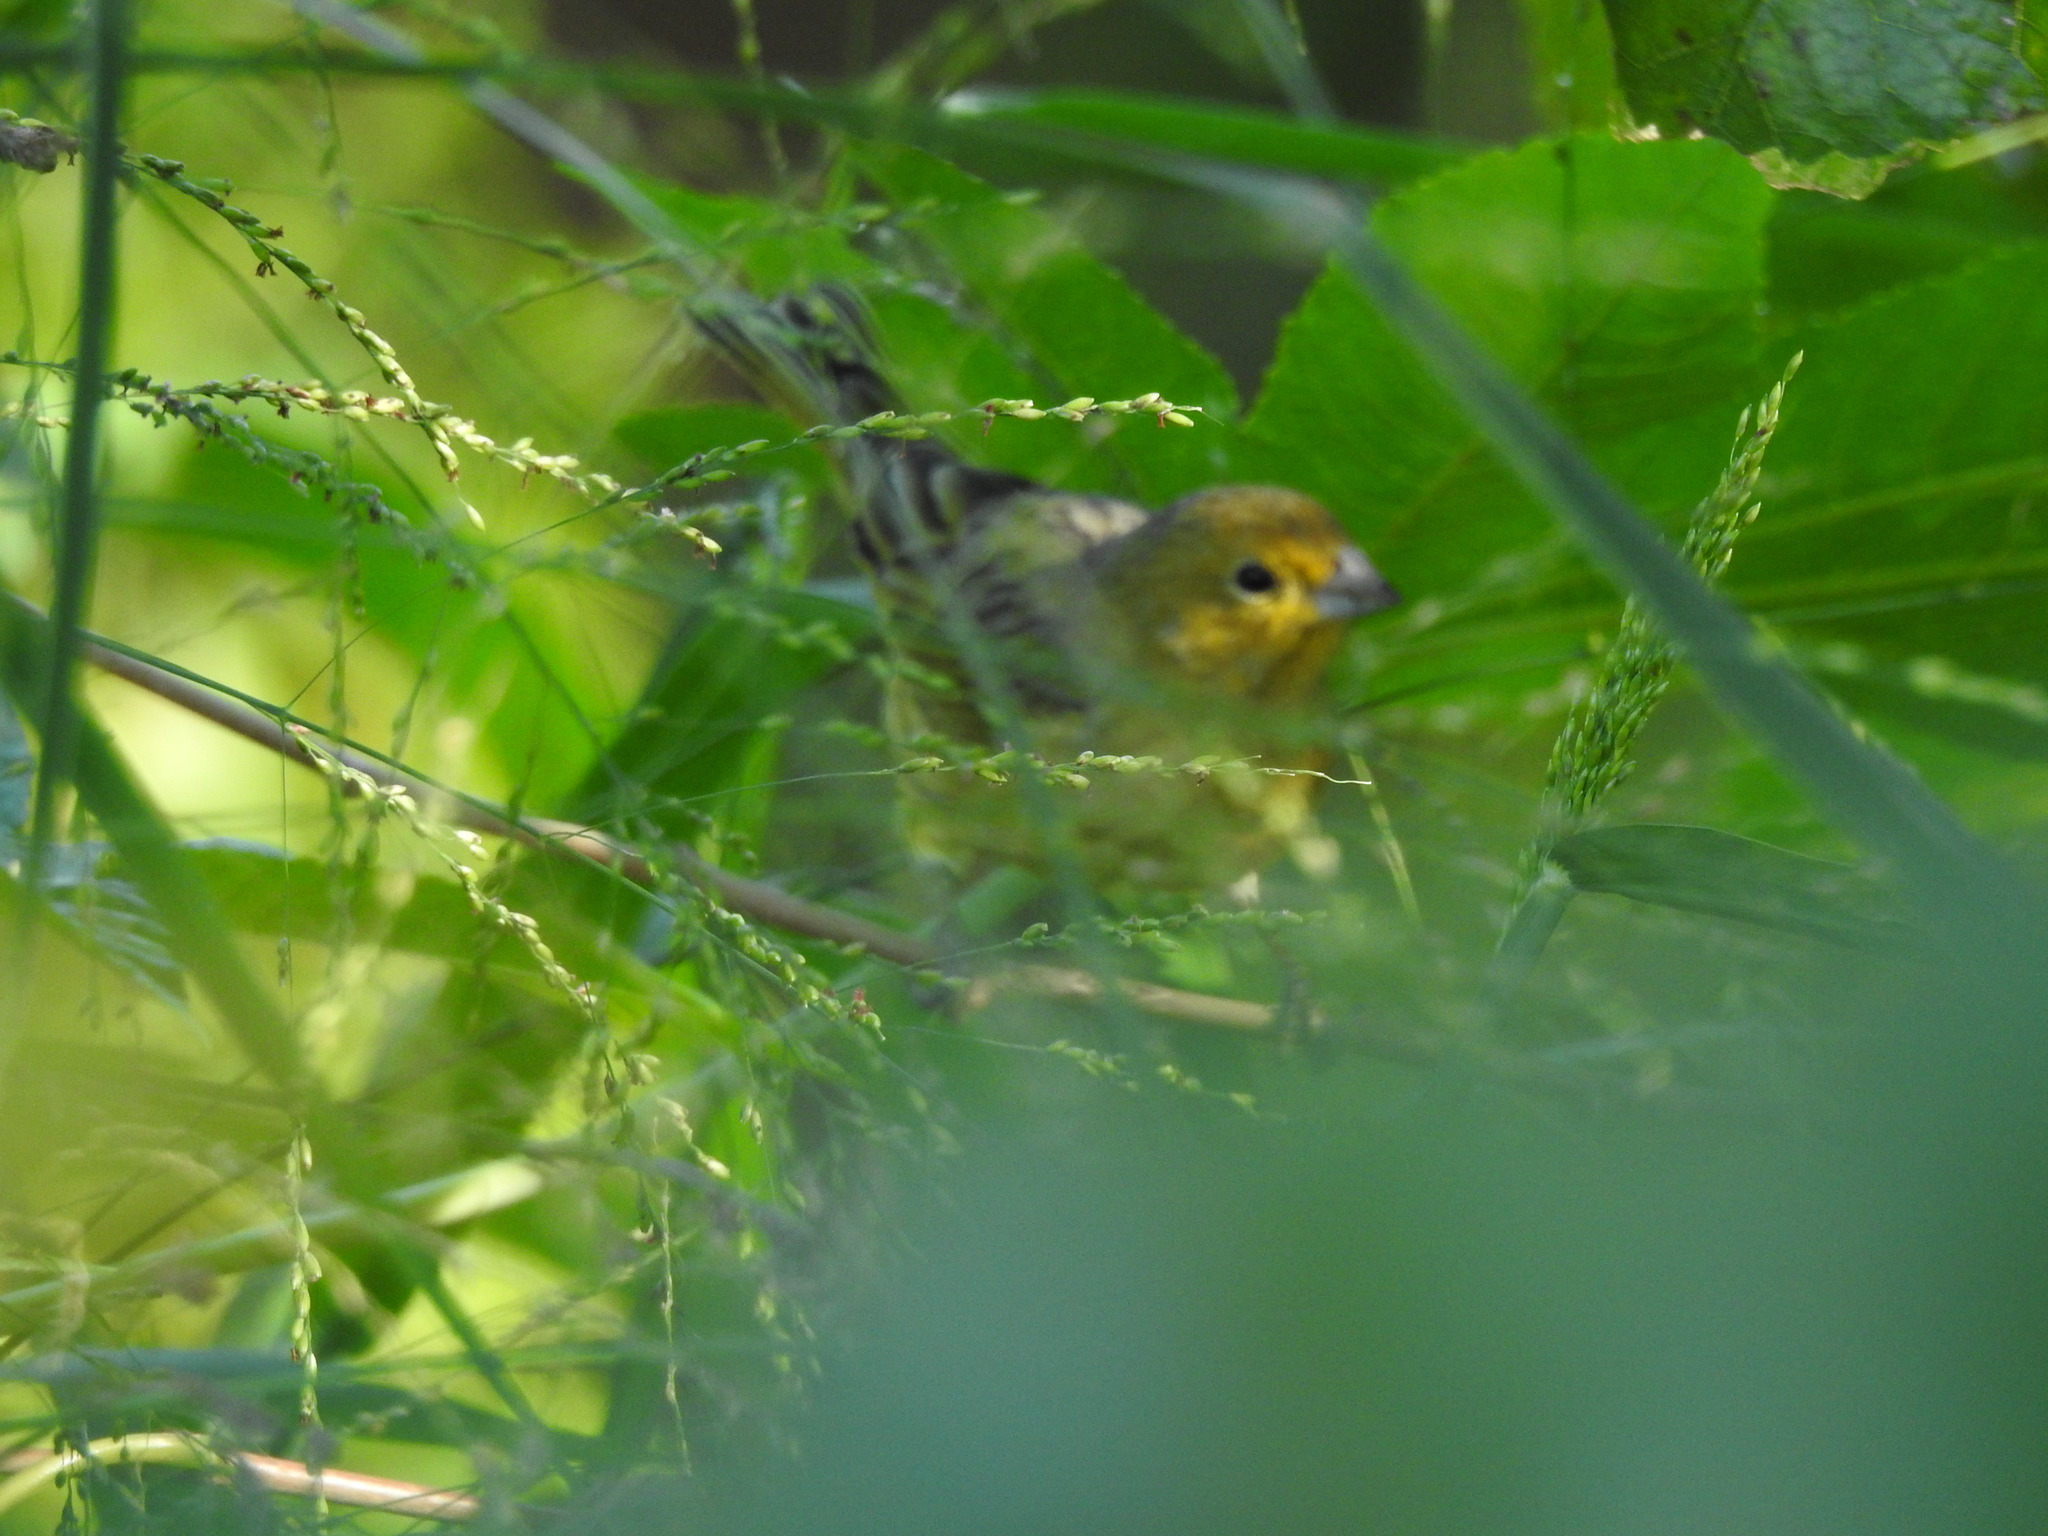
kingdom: Animalia
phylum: Chordata
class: Aves
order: Passeriformes
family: Thraupidae
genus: Sicalis
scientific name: Sicalis flaveola
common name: Saffron finch
